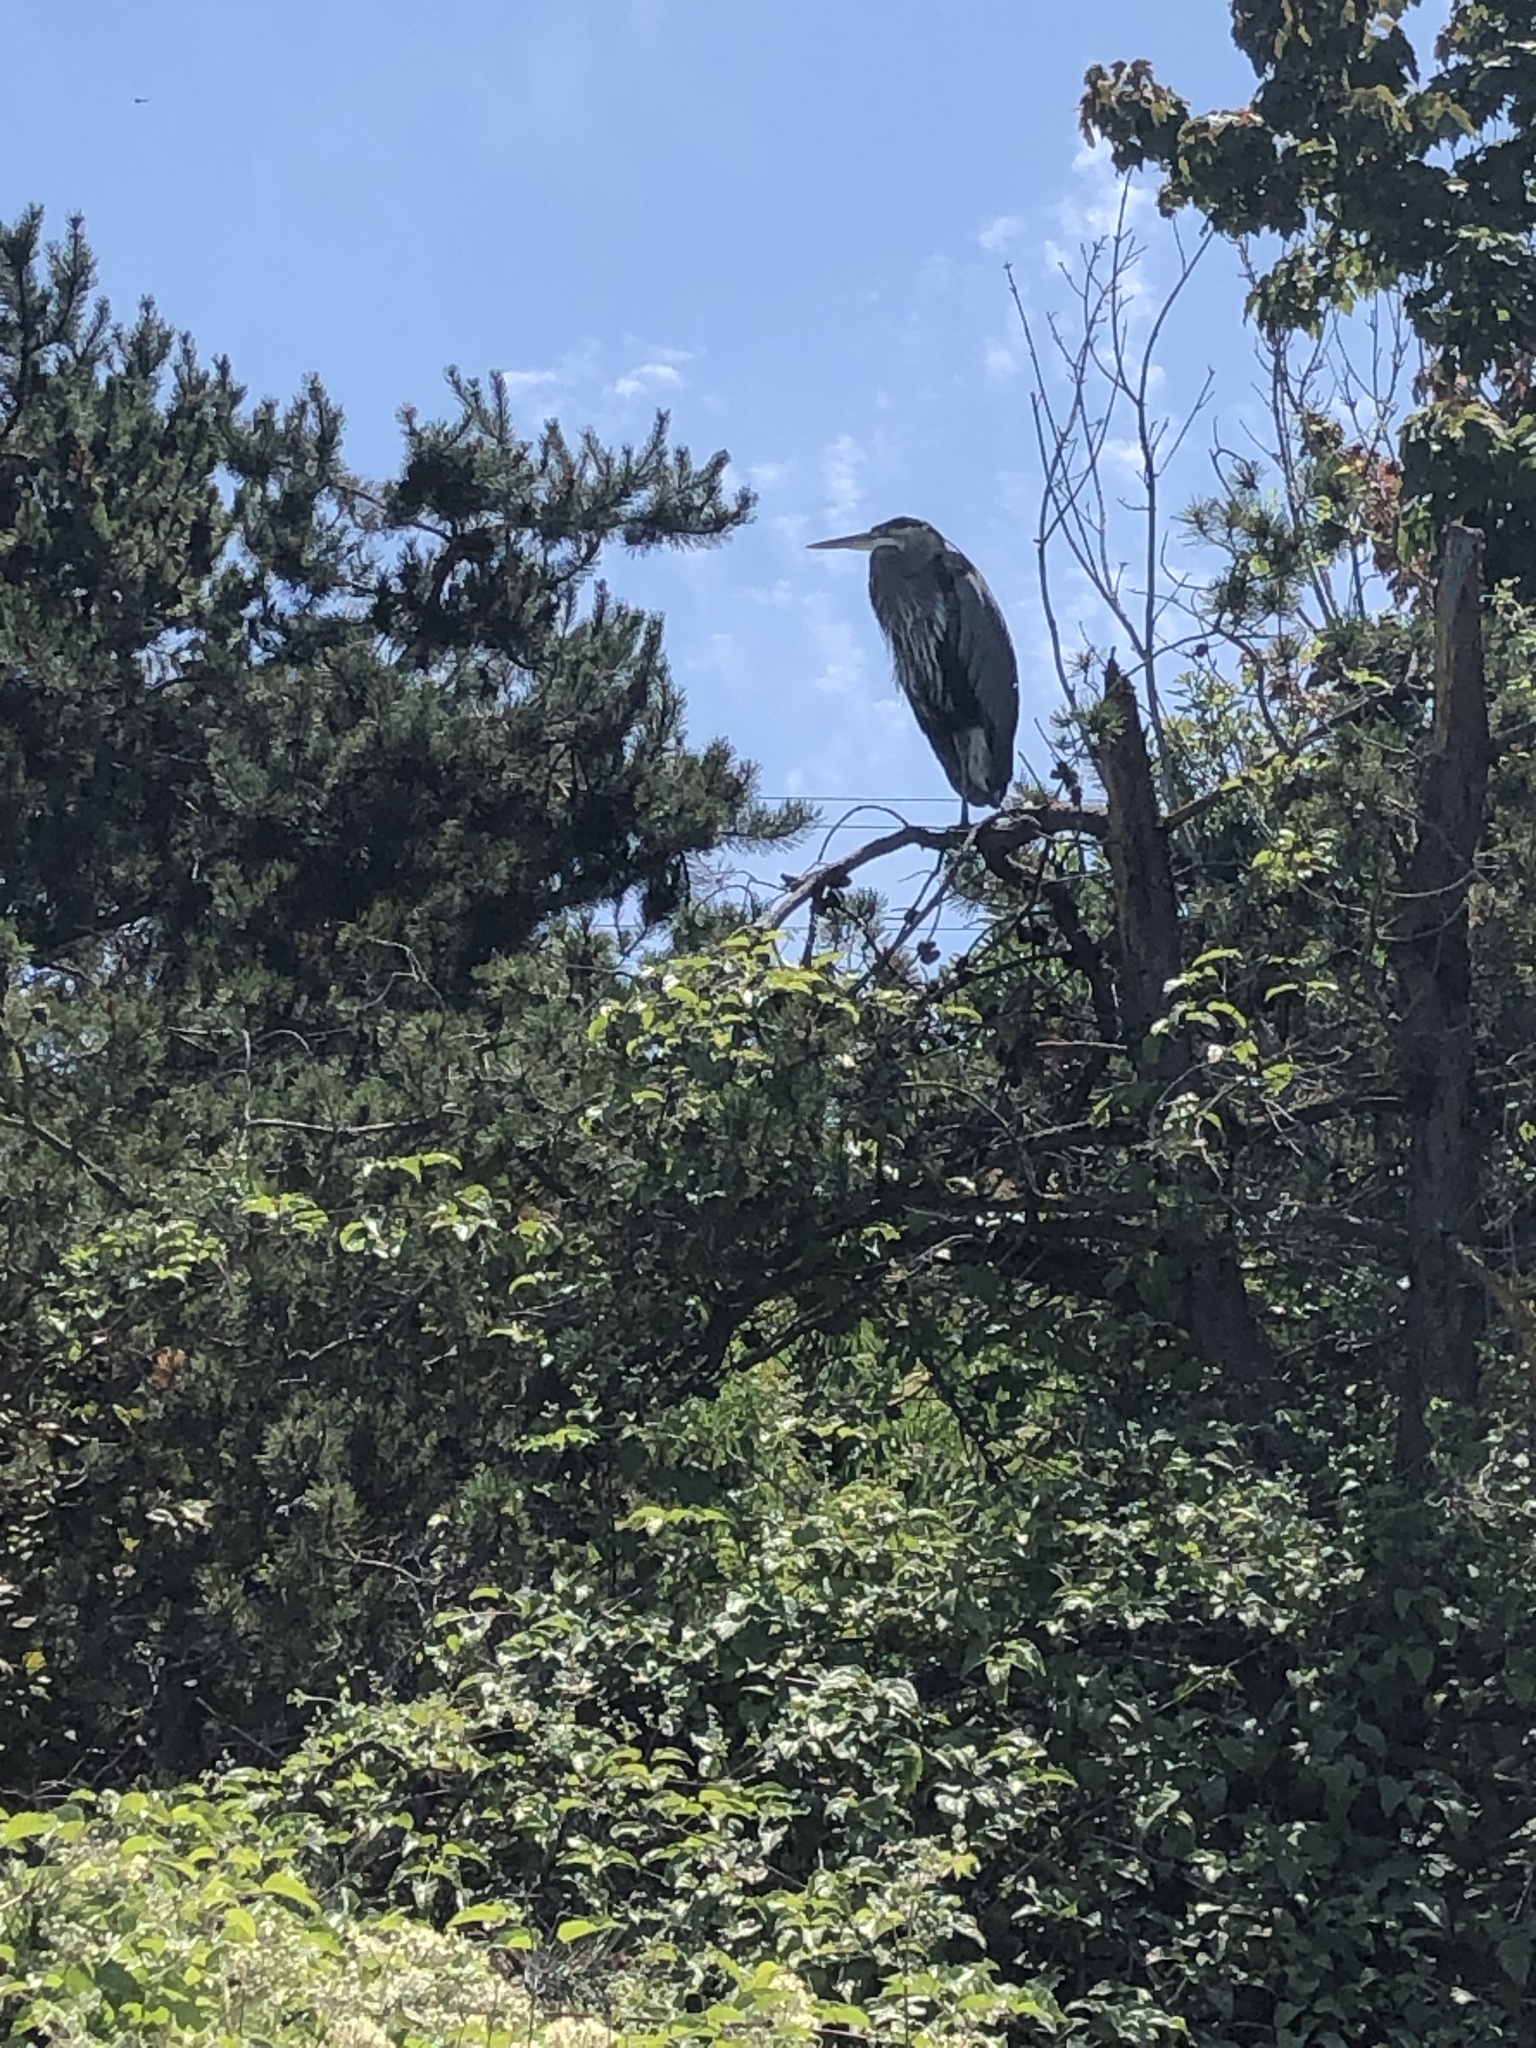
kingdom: Animalia
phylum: Chordata
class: Aves
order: Pelecaniformes
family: Ardeidae
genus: Ardea
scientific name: Ardea herodias
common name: Great blue heron
